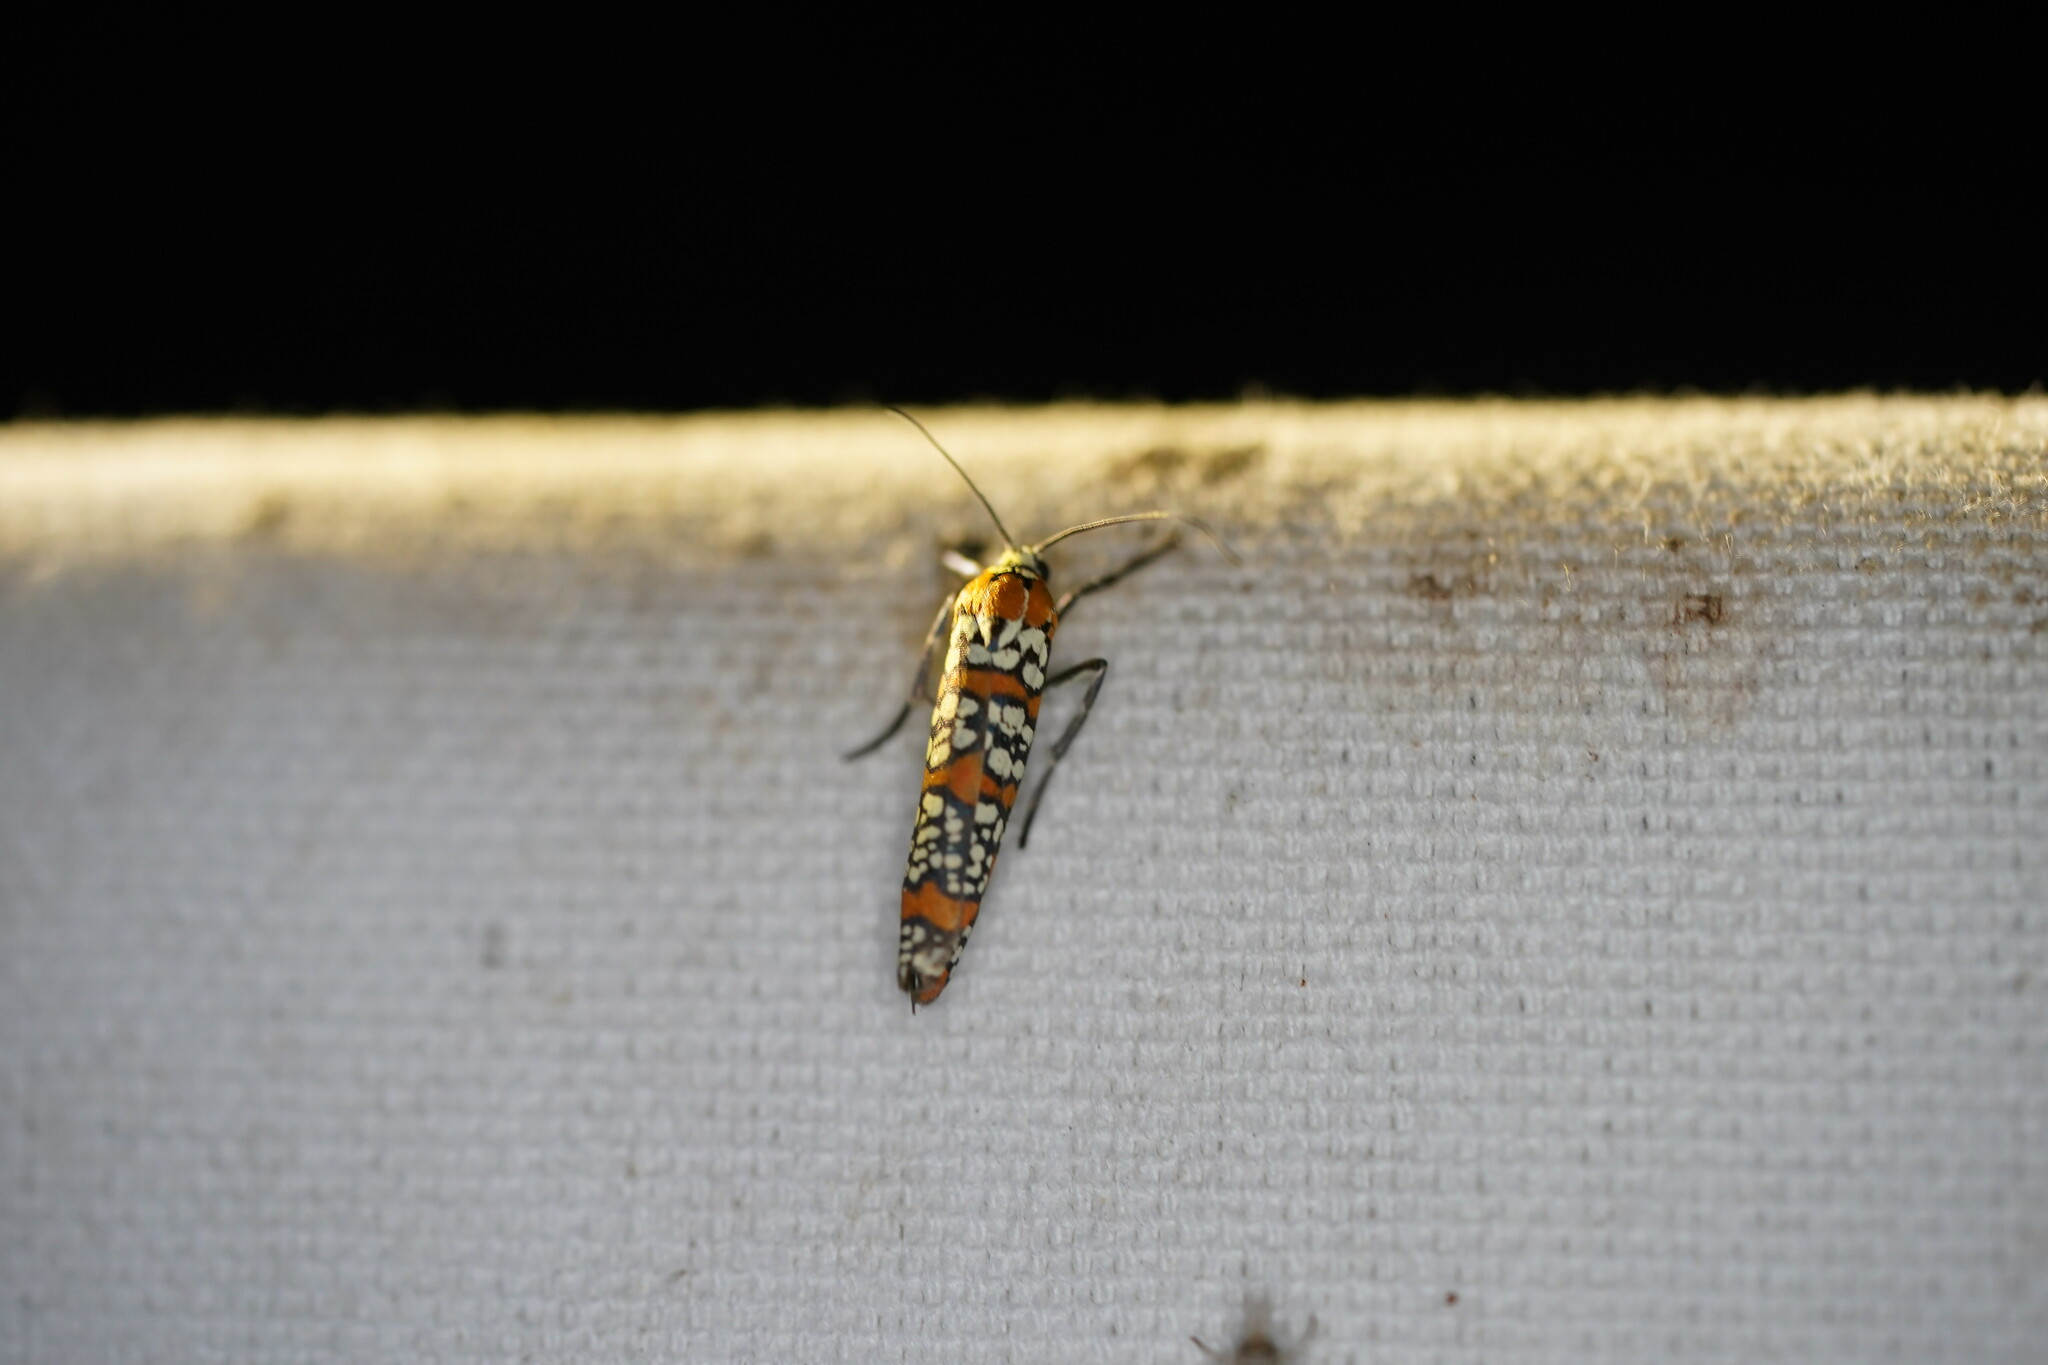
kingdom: Animalia
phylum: Arthropoda
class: Insecta
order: Lepidoptera
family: Attevidae
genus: Atteva
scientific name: Atteva punctella
